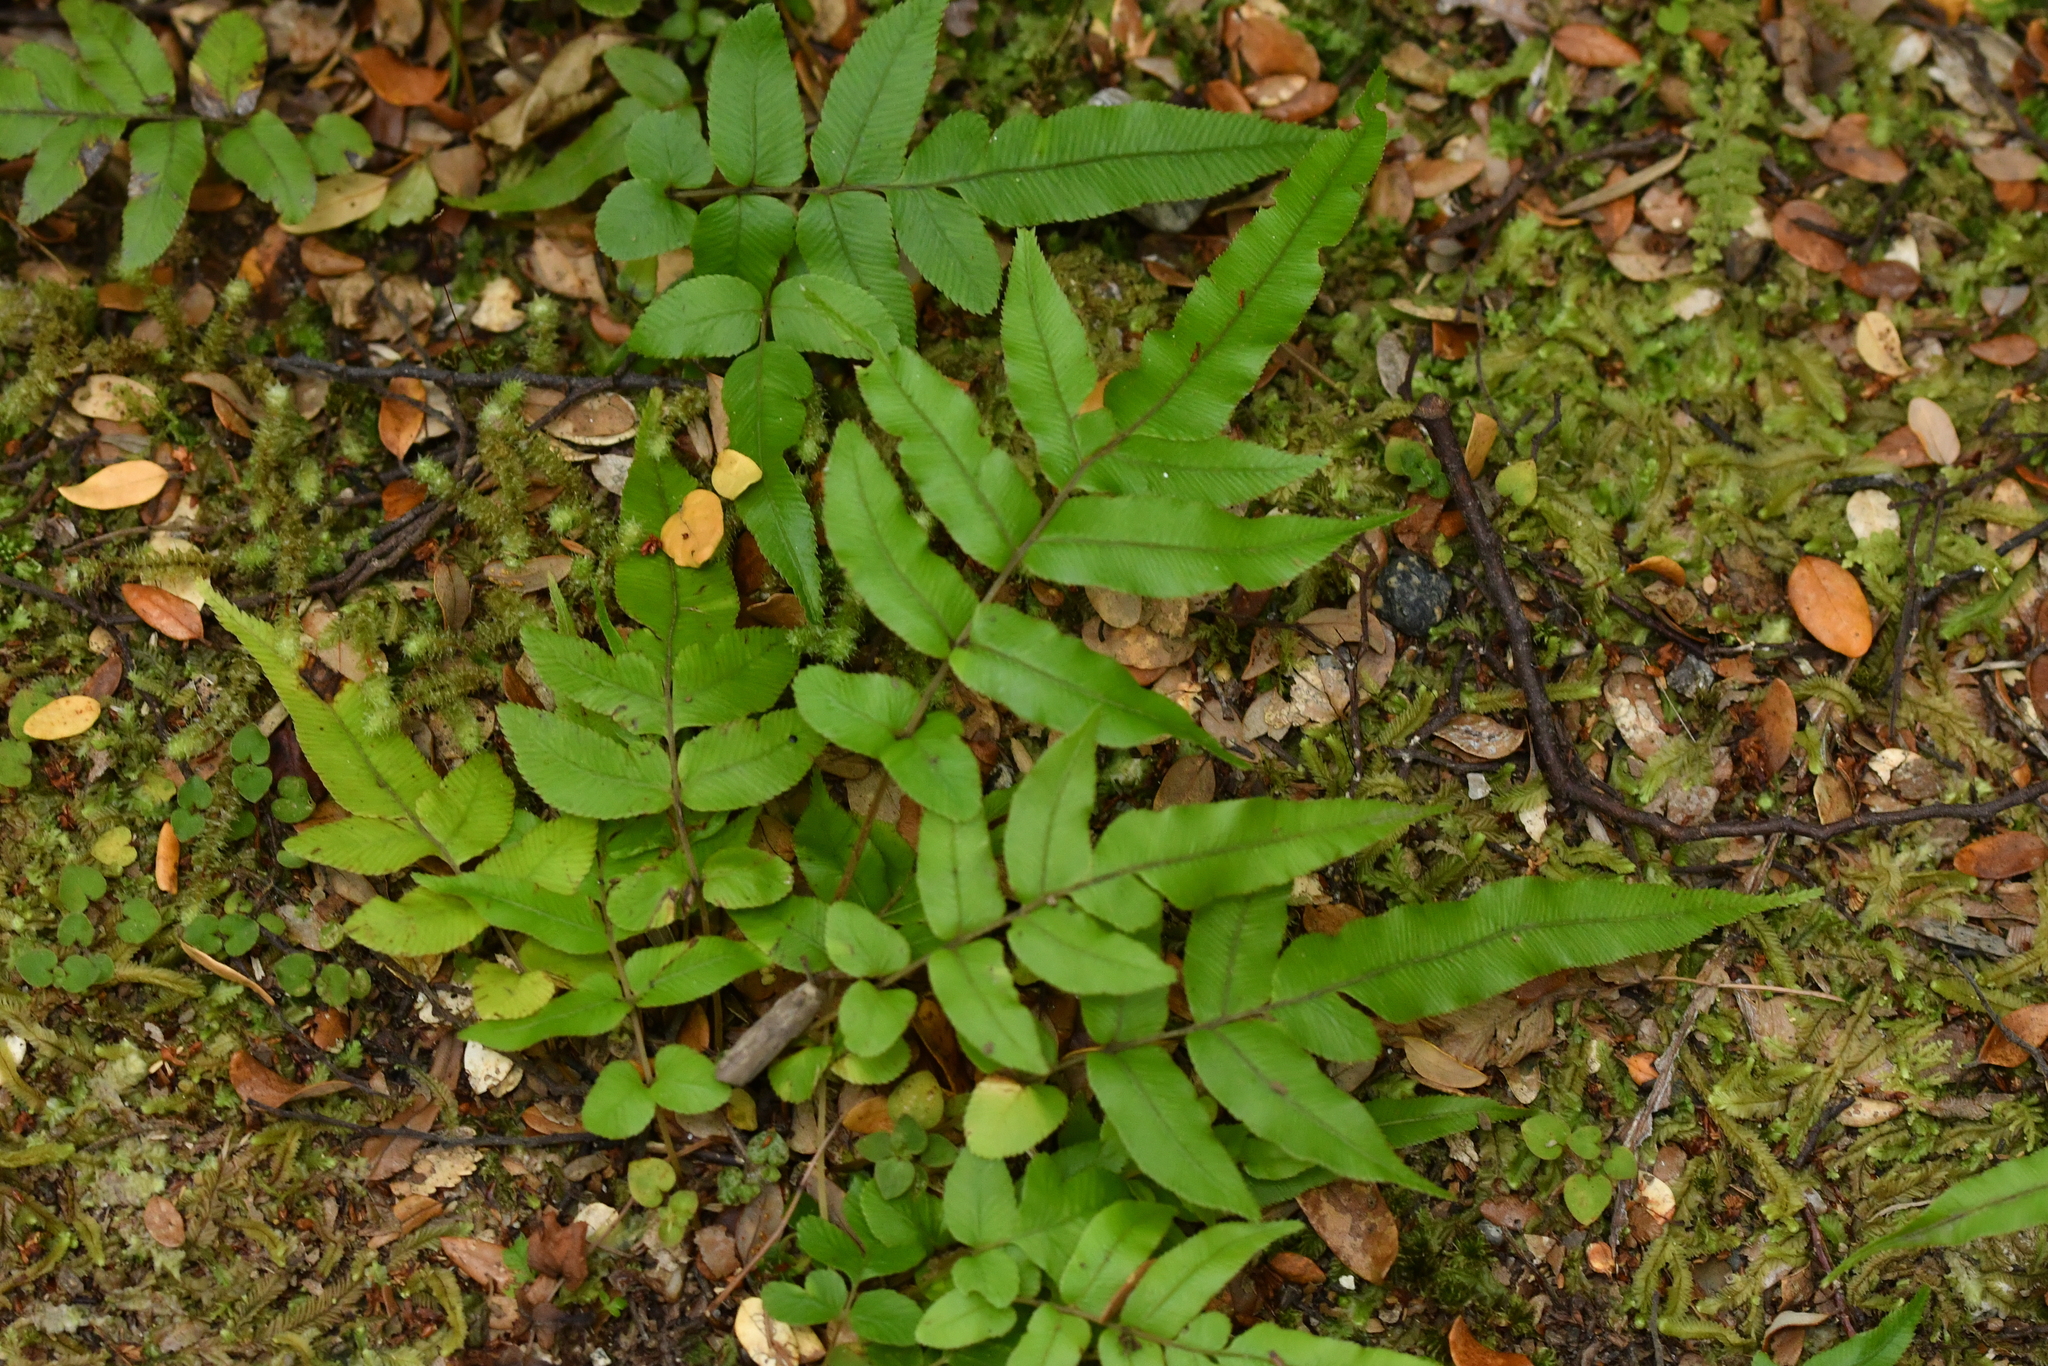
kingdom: Plantae
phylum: Tracheophyta
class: Polypodiopsida
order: Polypodiales
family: Blechnaceae
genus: Parablechnum
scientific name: Parablechnum procerum
